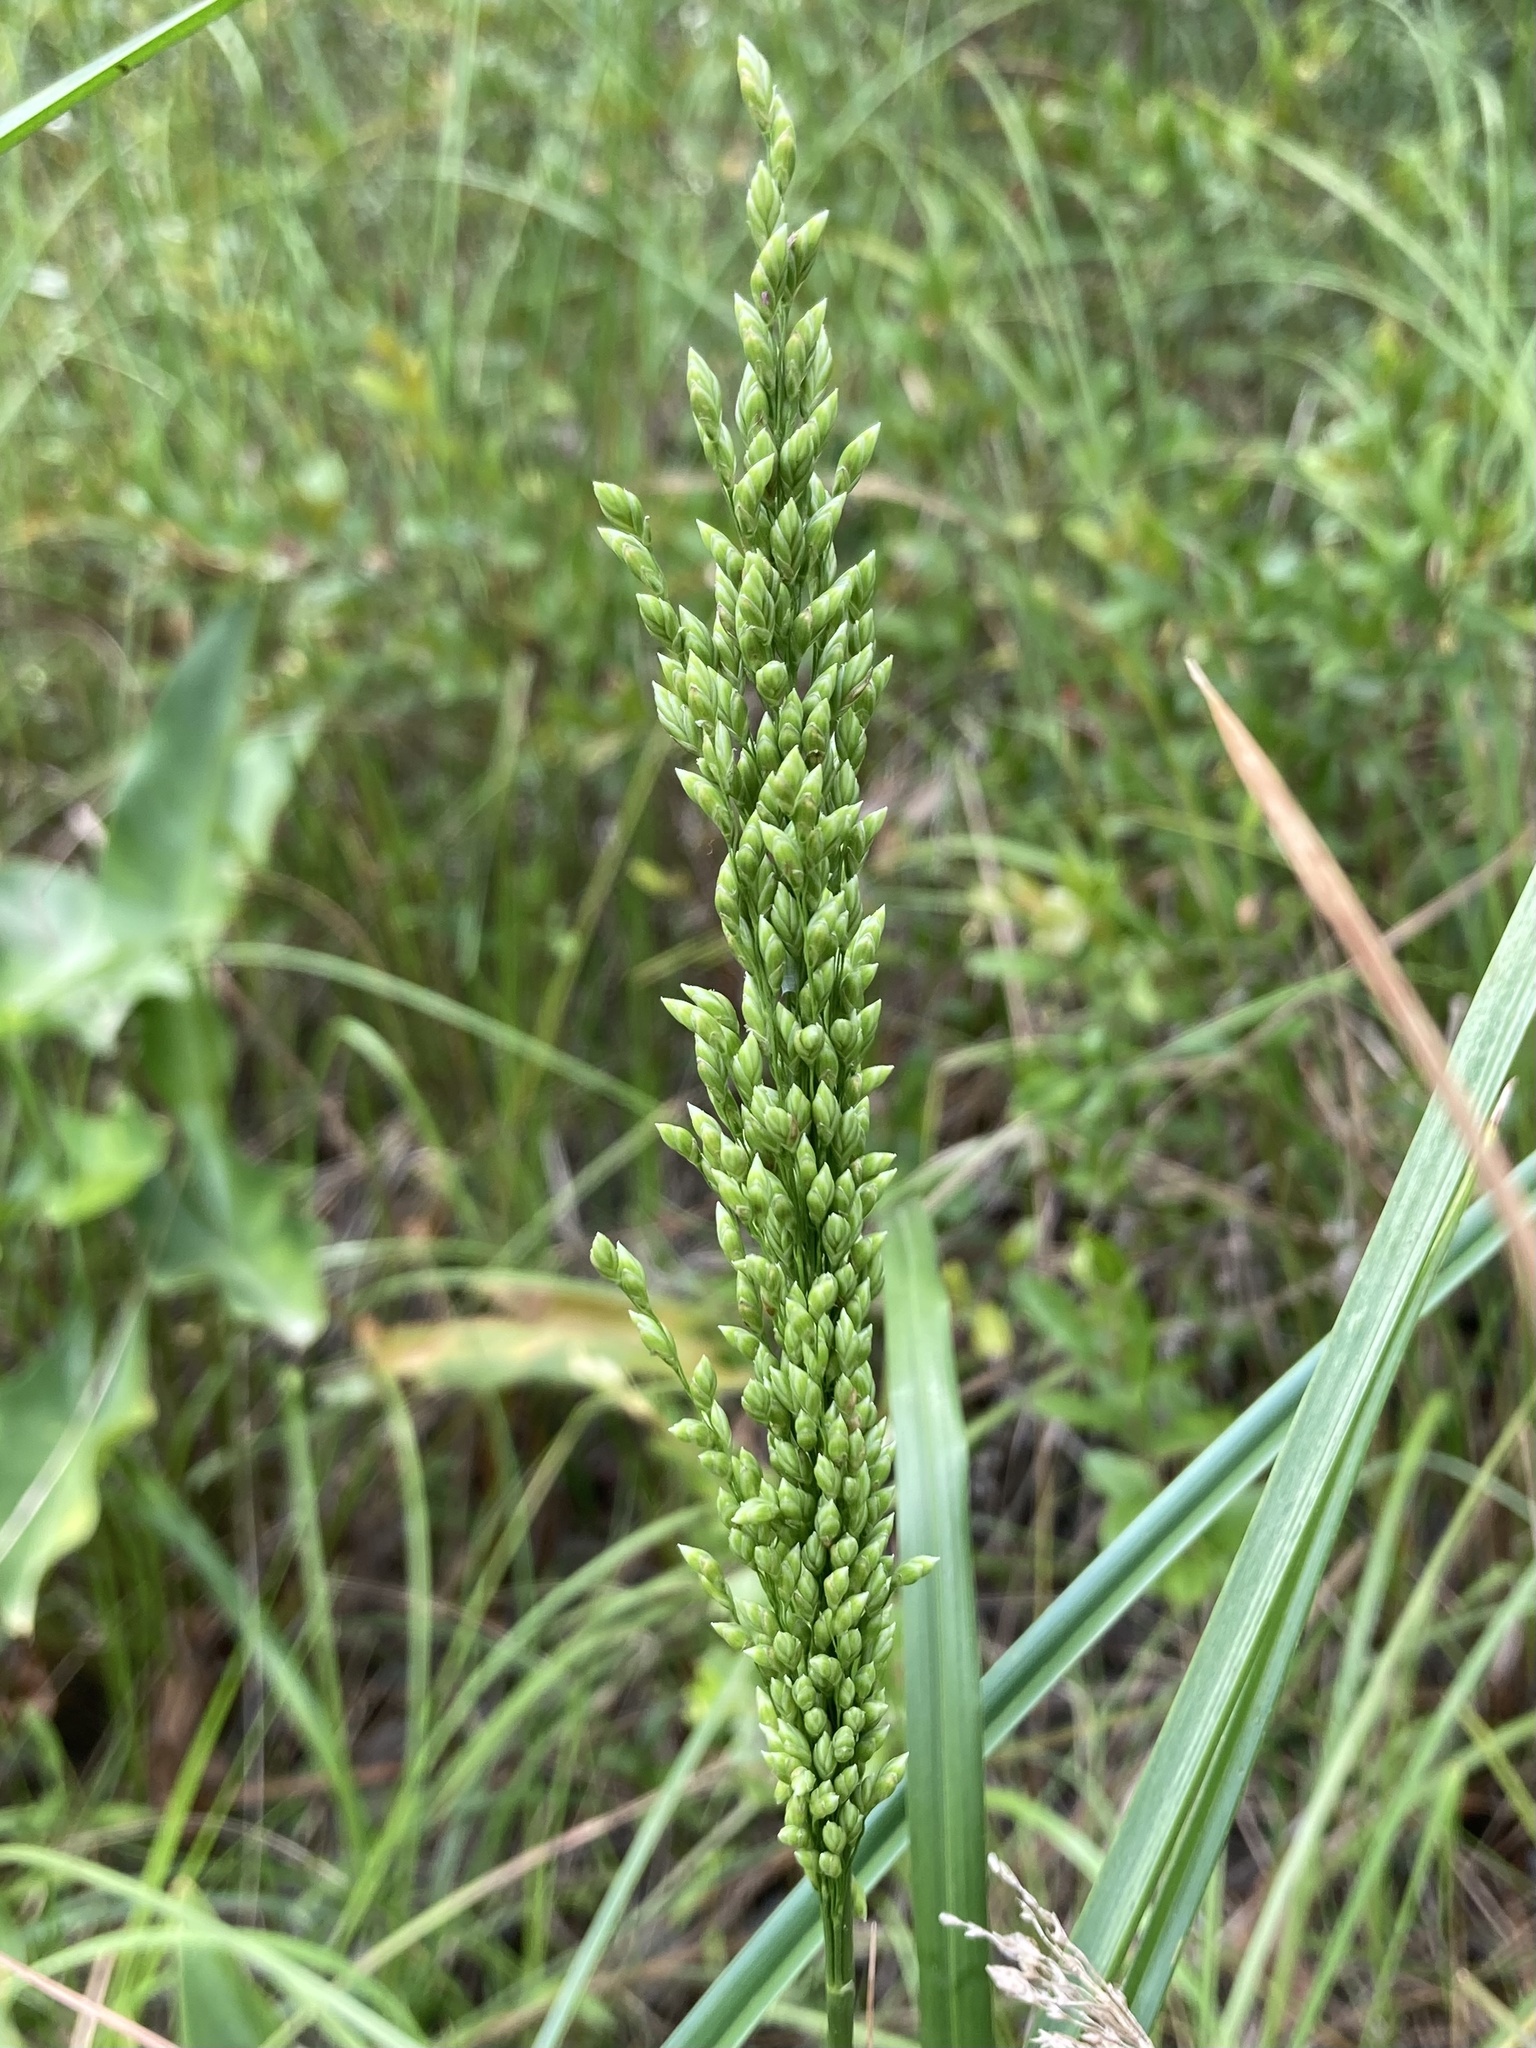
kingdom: Plantae
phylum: Tracheophyta
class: Liliopsida
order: Poales
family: Poaceae
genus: Glyceria
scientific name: Glyceria obtusa
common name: Atlantic mannagrass
